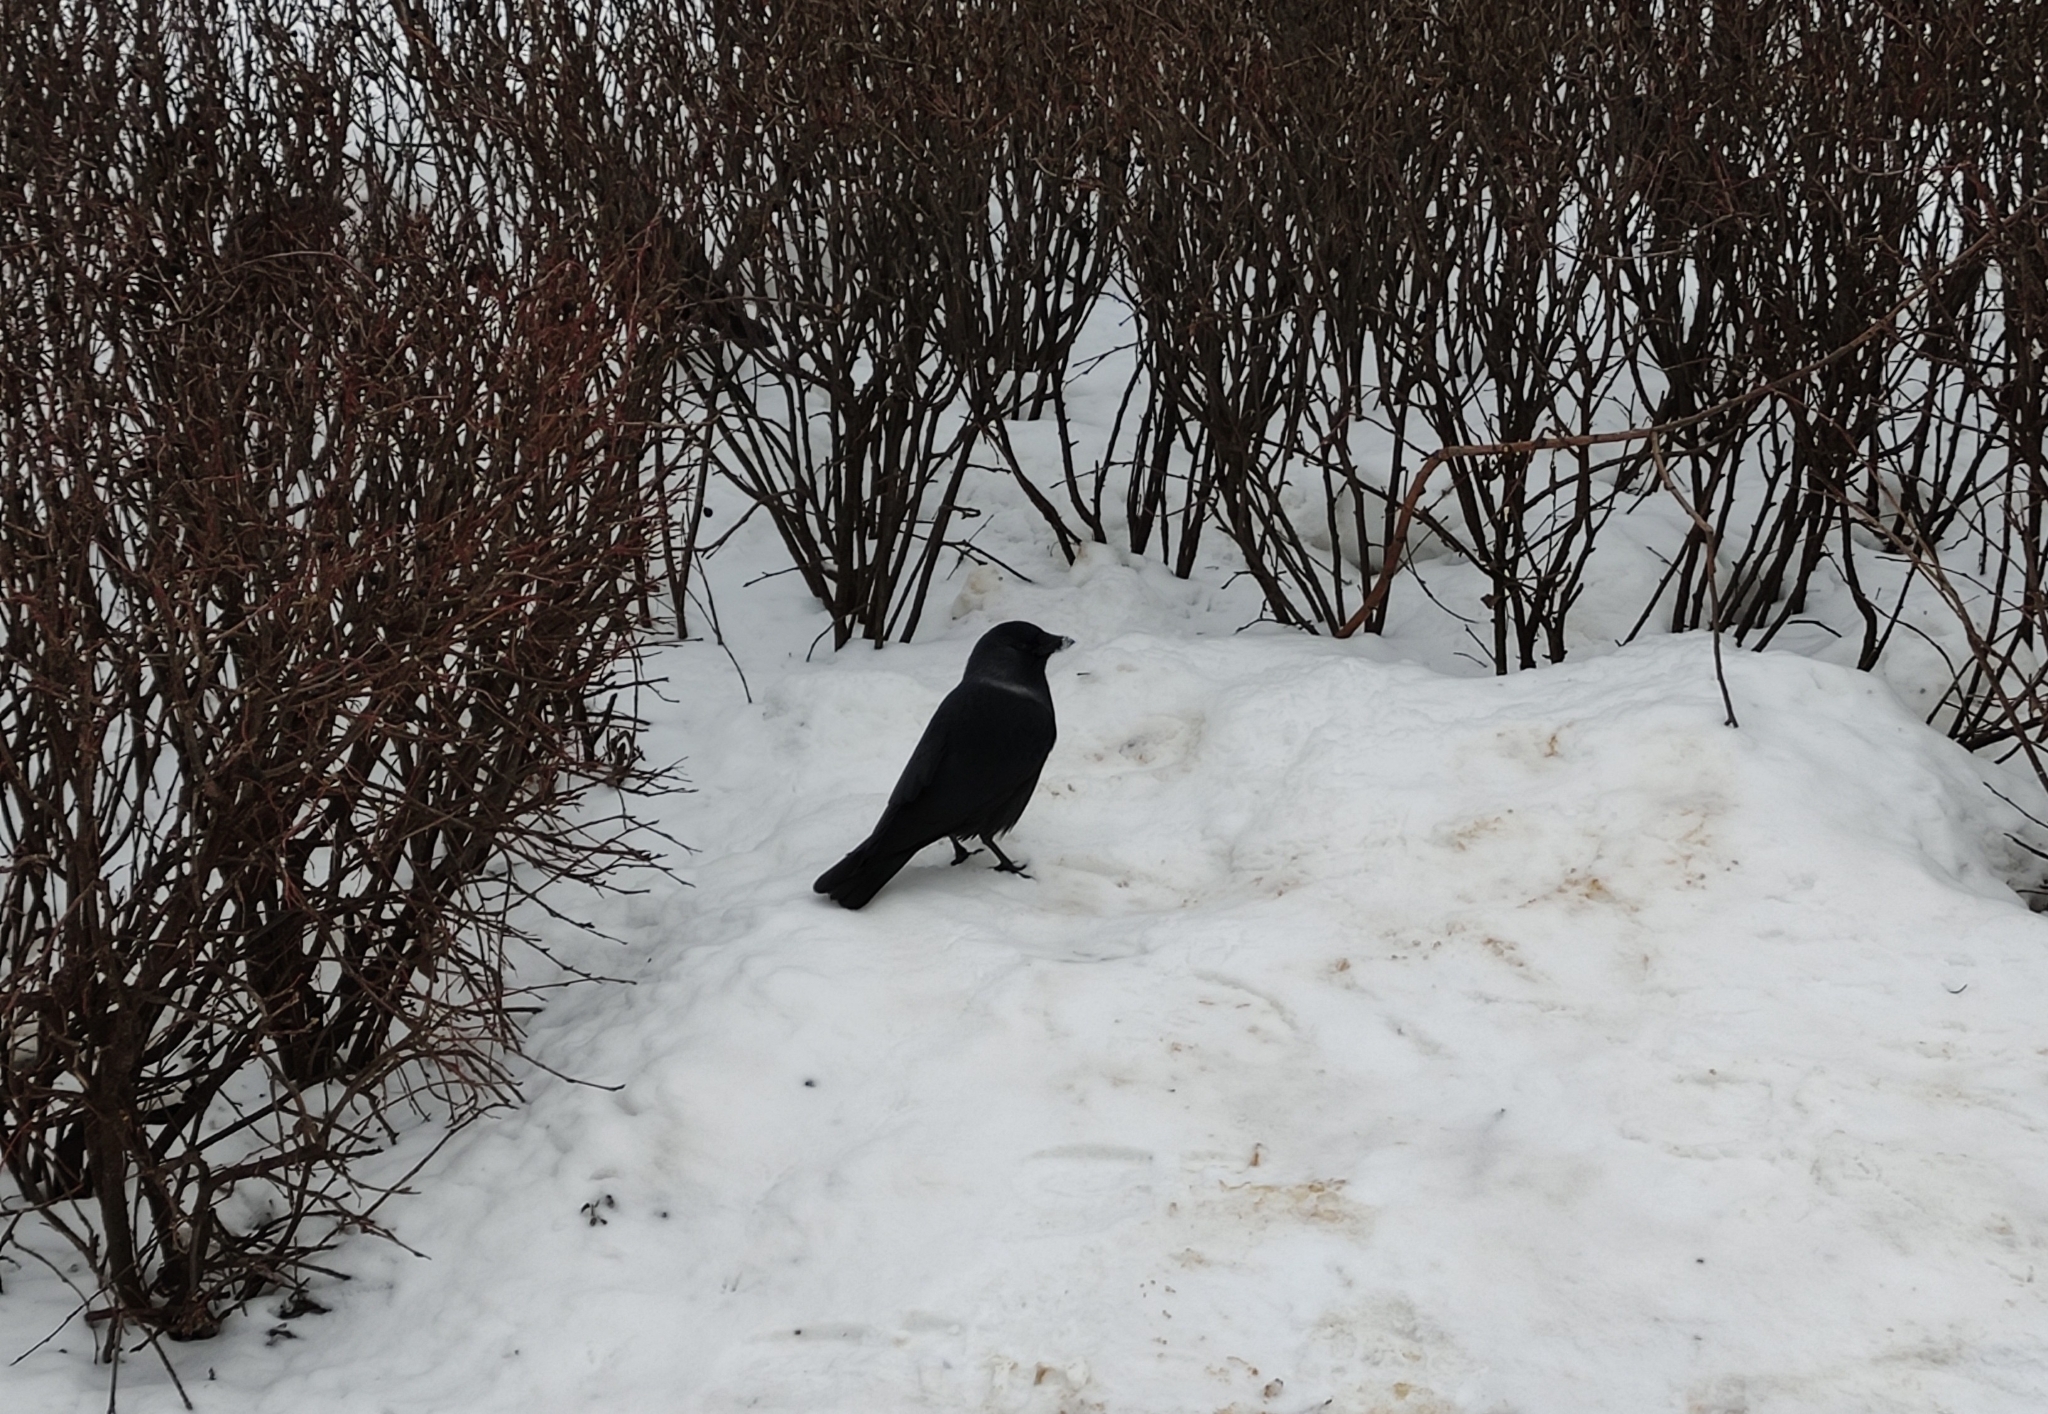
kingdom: Animalia
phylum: Chordata
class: Aves
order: Passeriformes
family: Corvidae
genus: Coloeus
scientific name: Coloeus monedula
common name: Western jackdaw
